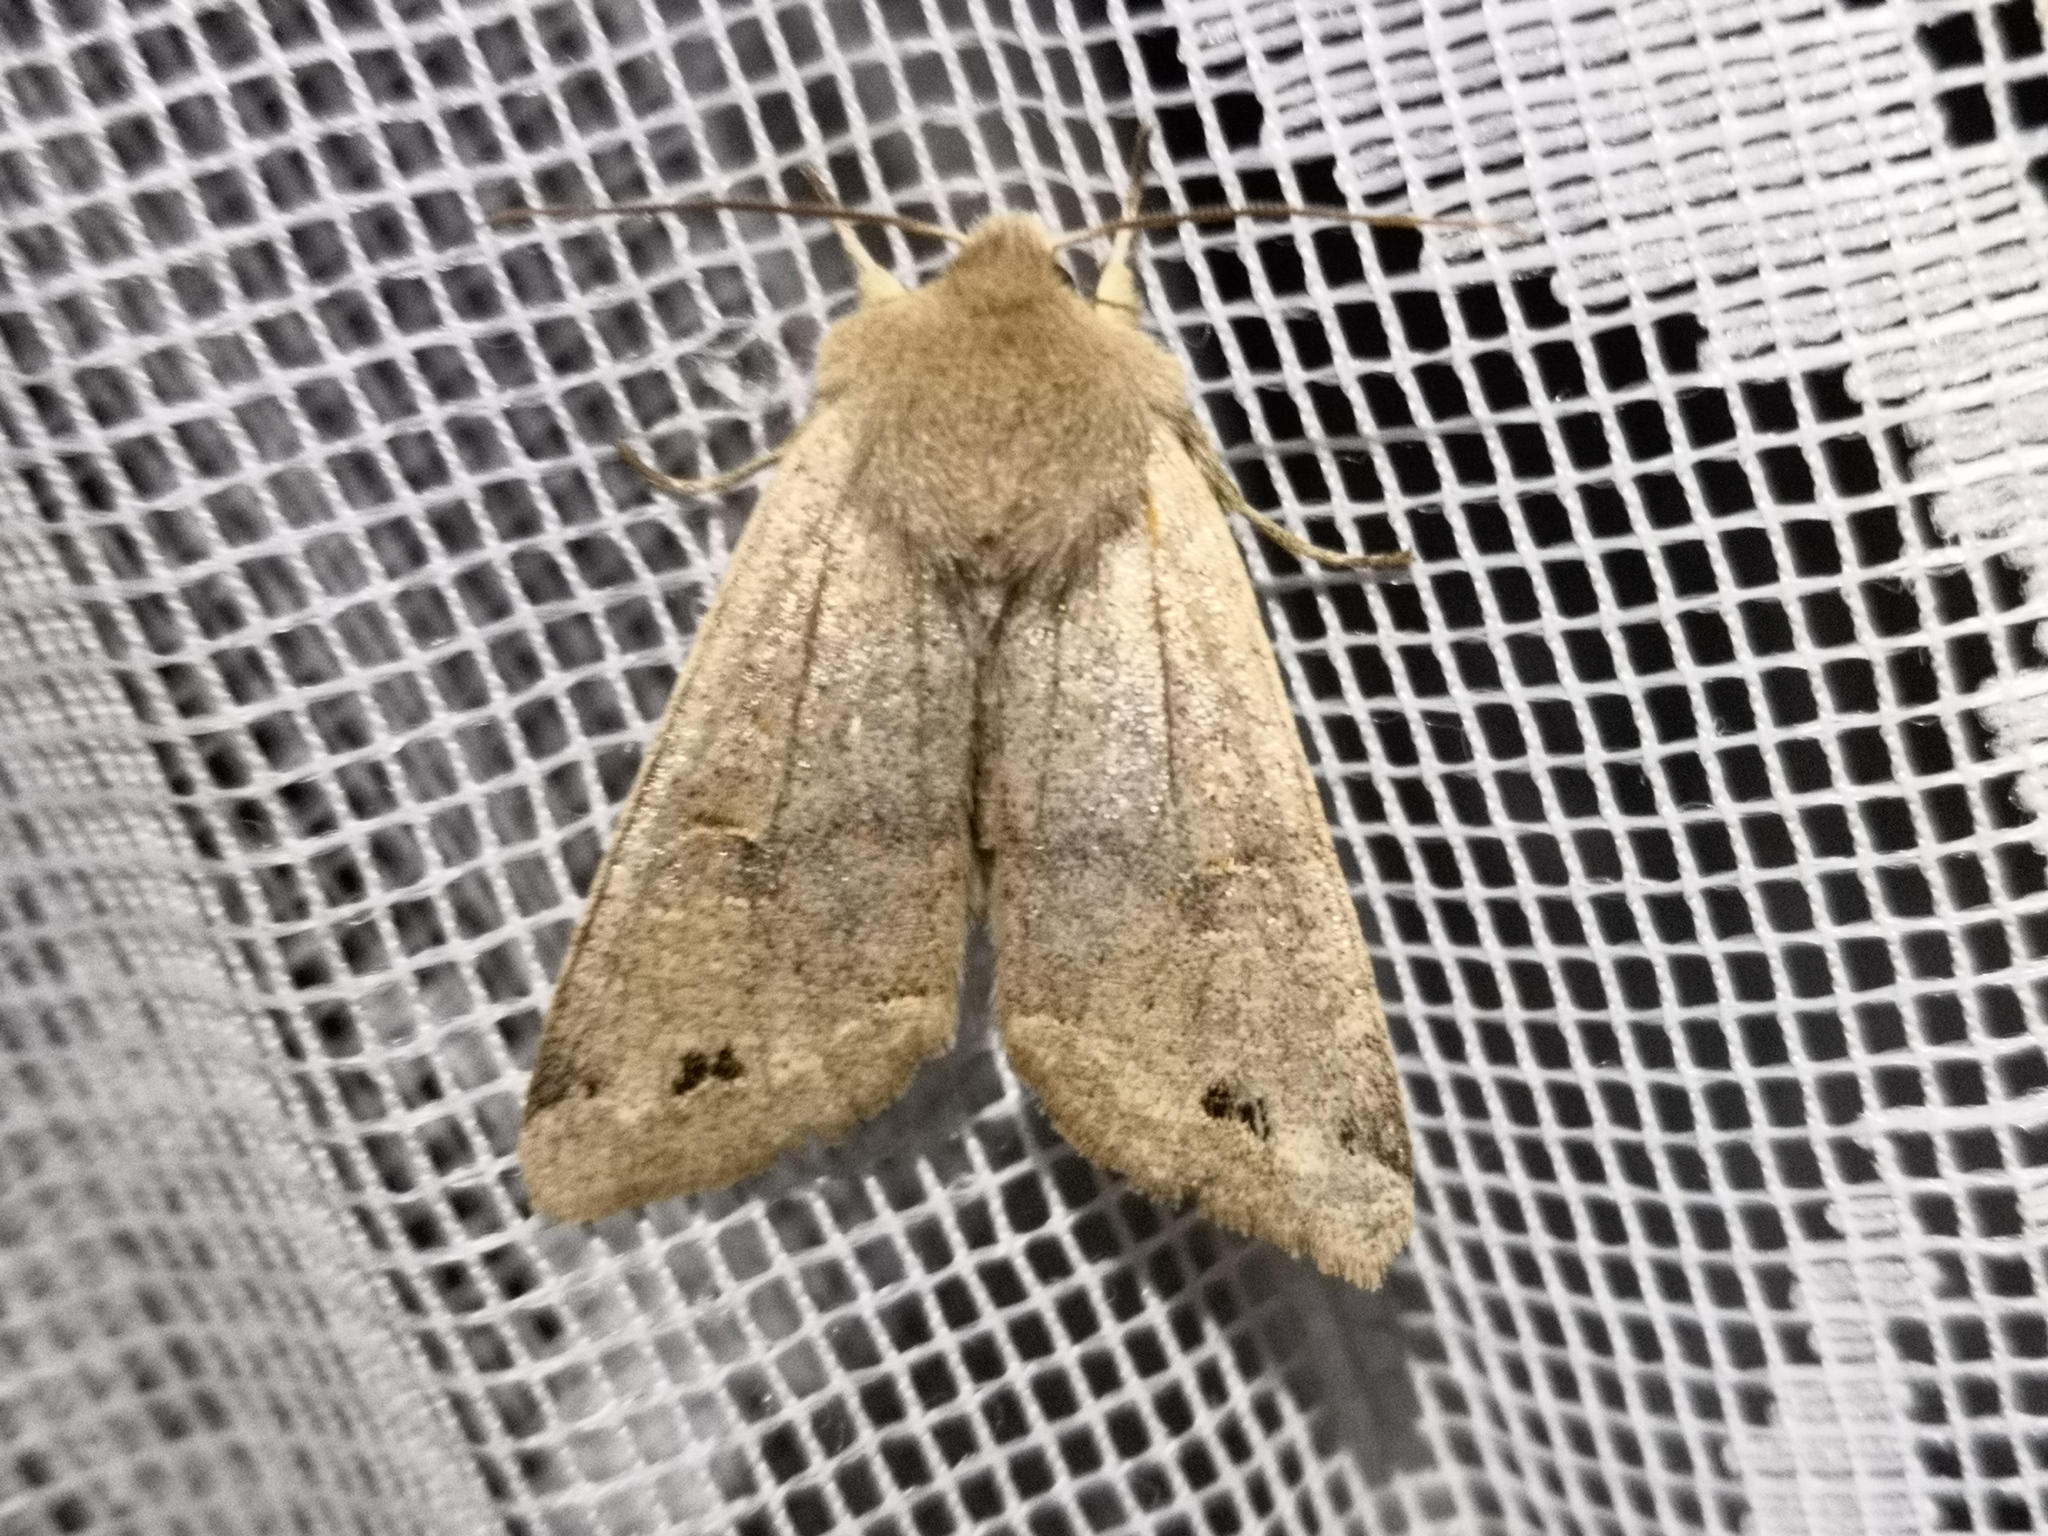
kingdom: Animalia
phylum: Arthropoda
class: Insecta
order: Lepidoptera
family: Noctuidae
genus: Anorthoa
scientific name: Anorthoa munda
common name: Twin-spotted quaker
